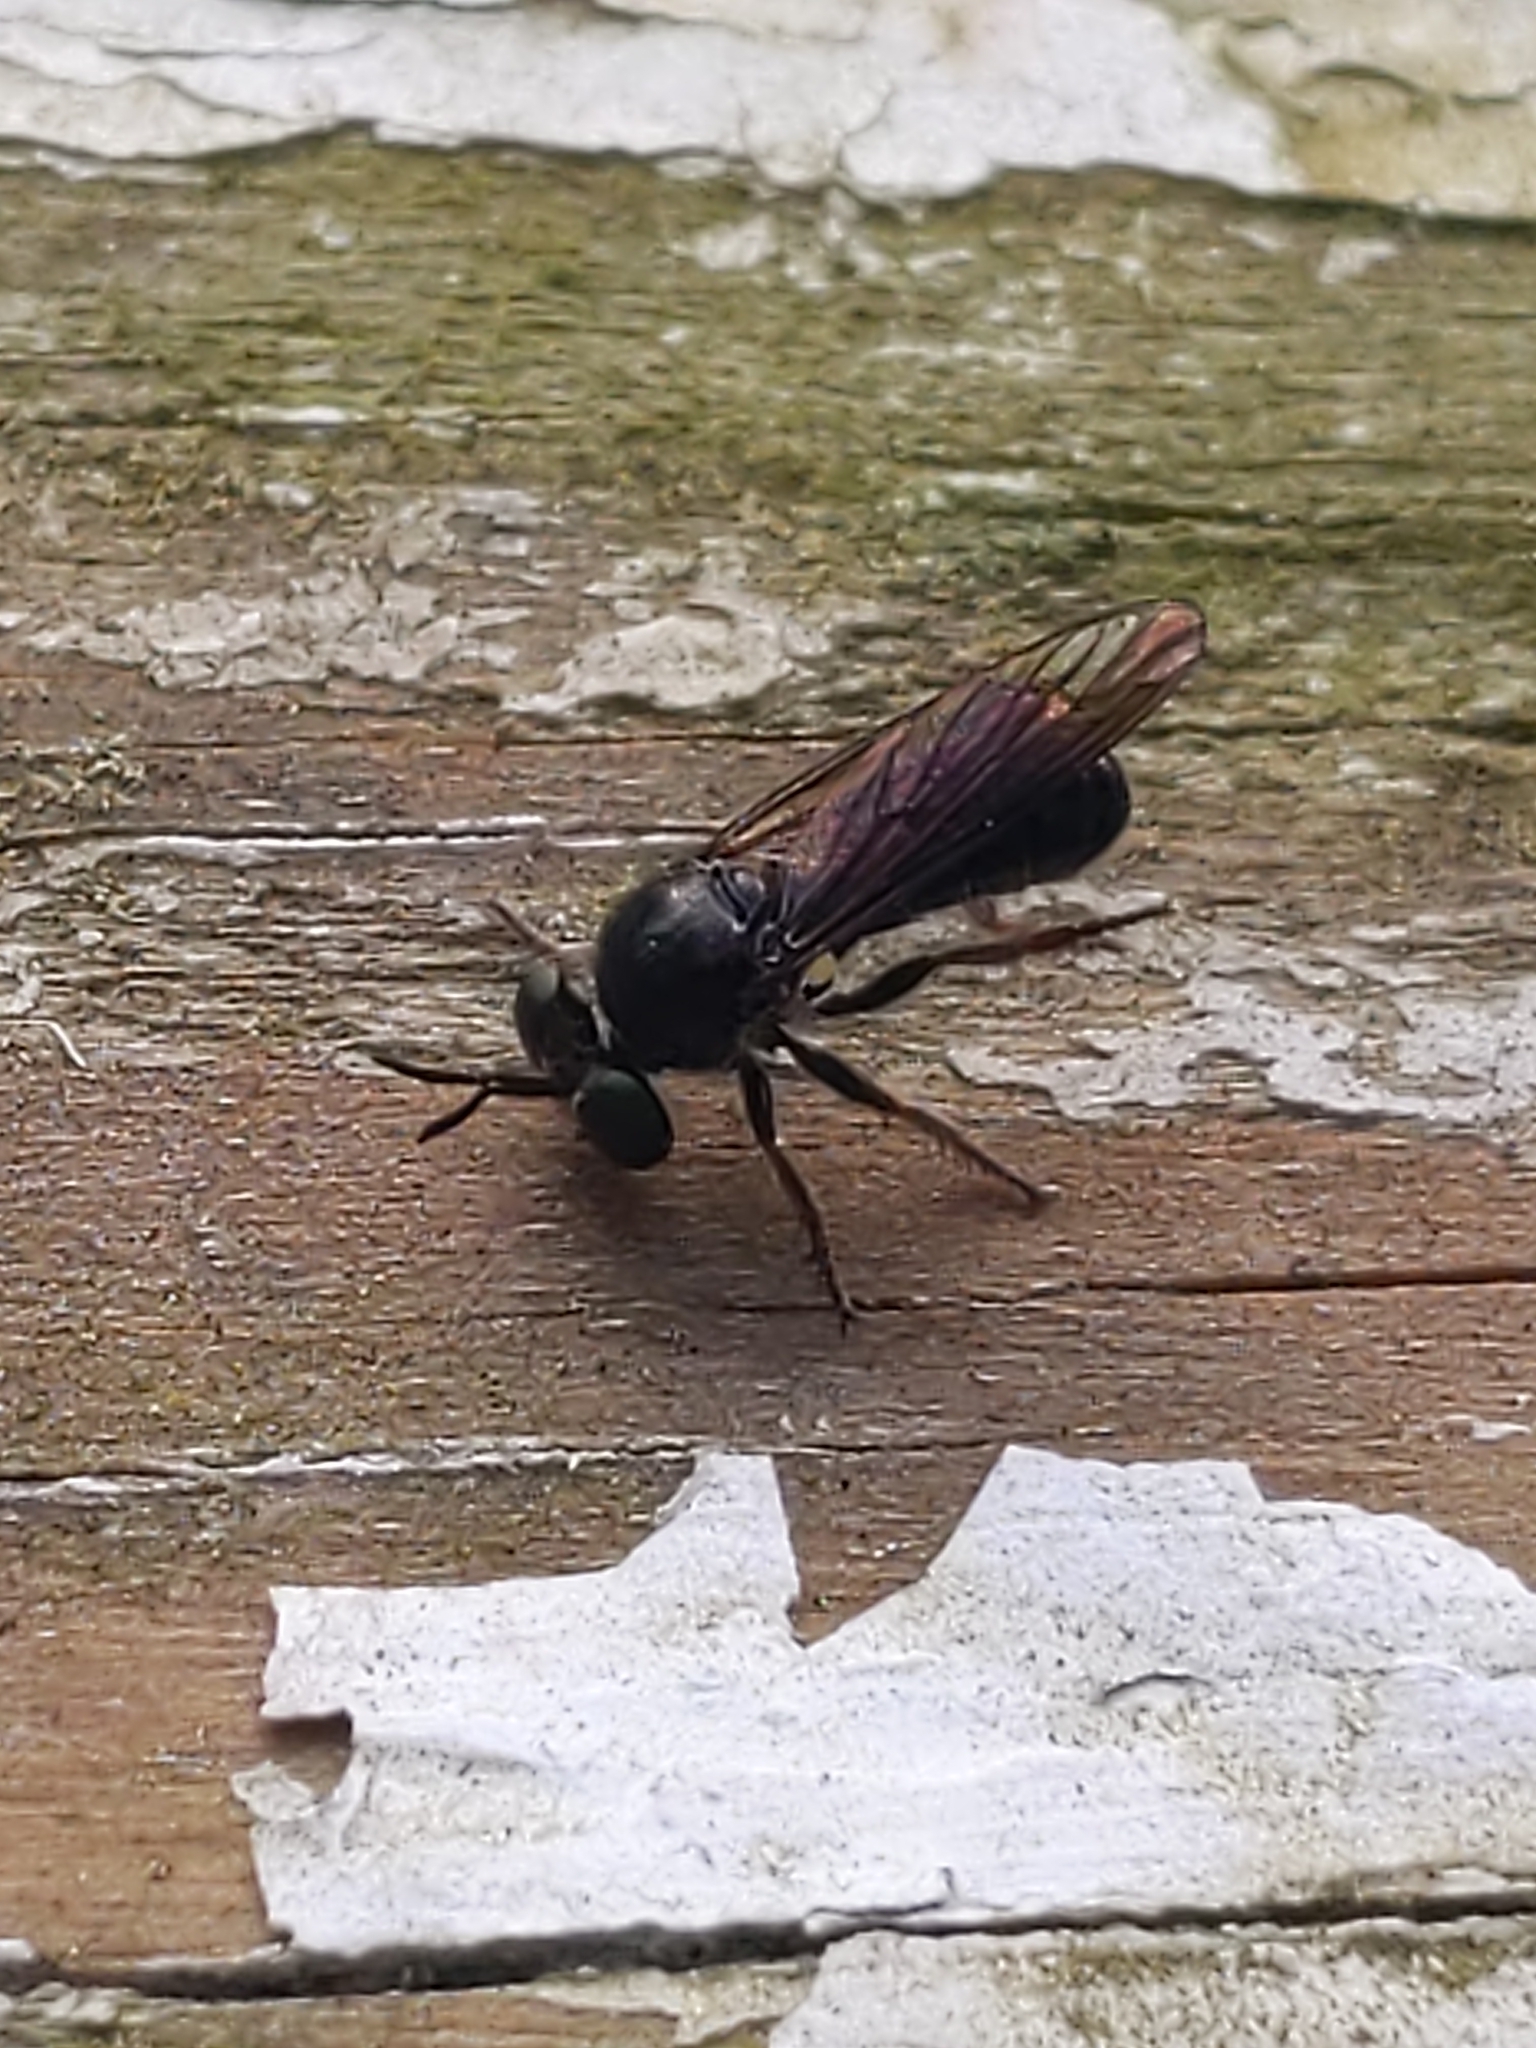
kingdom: Animalia
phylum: Arthropoda
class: Insecta
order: Diptera
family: Asilidae
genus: Cerotainia
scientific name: Cerotainia
